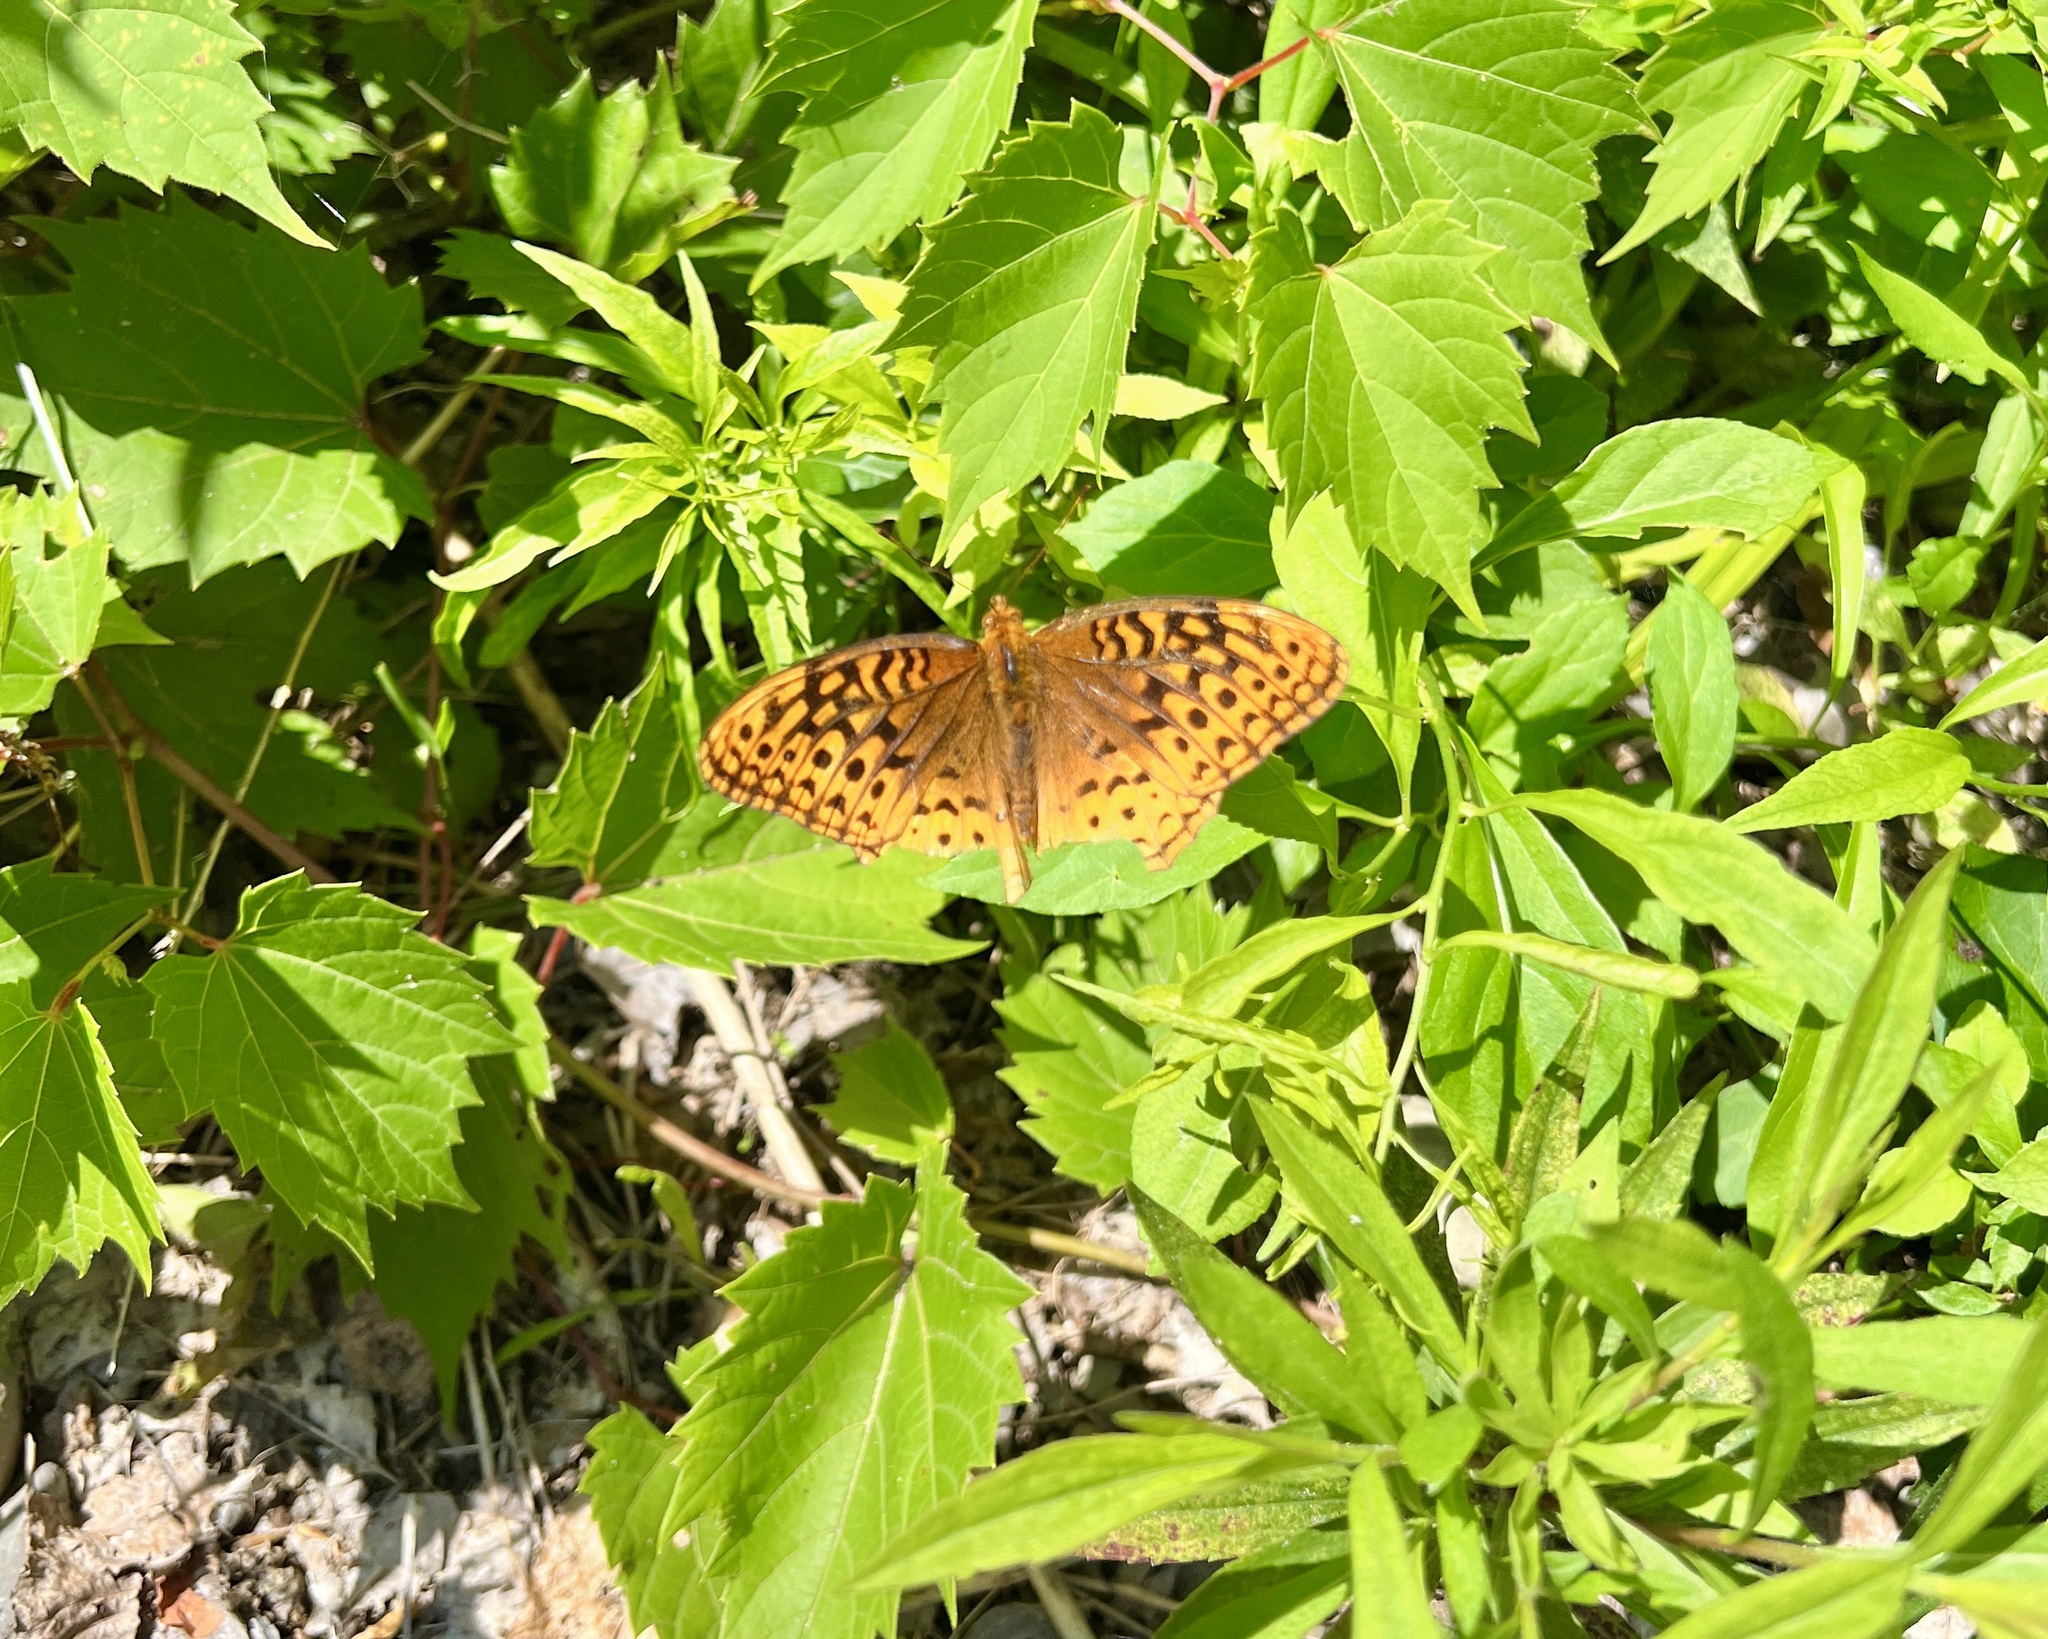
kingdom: Animalia
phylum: Arthropoda
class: Insecta
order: Lepidoptera
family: Nymphalidae
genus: Speyeria
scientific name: Speyeria cybele
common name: Great spangled fritillary
